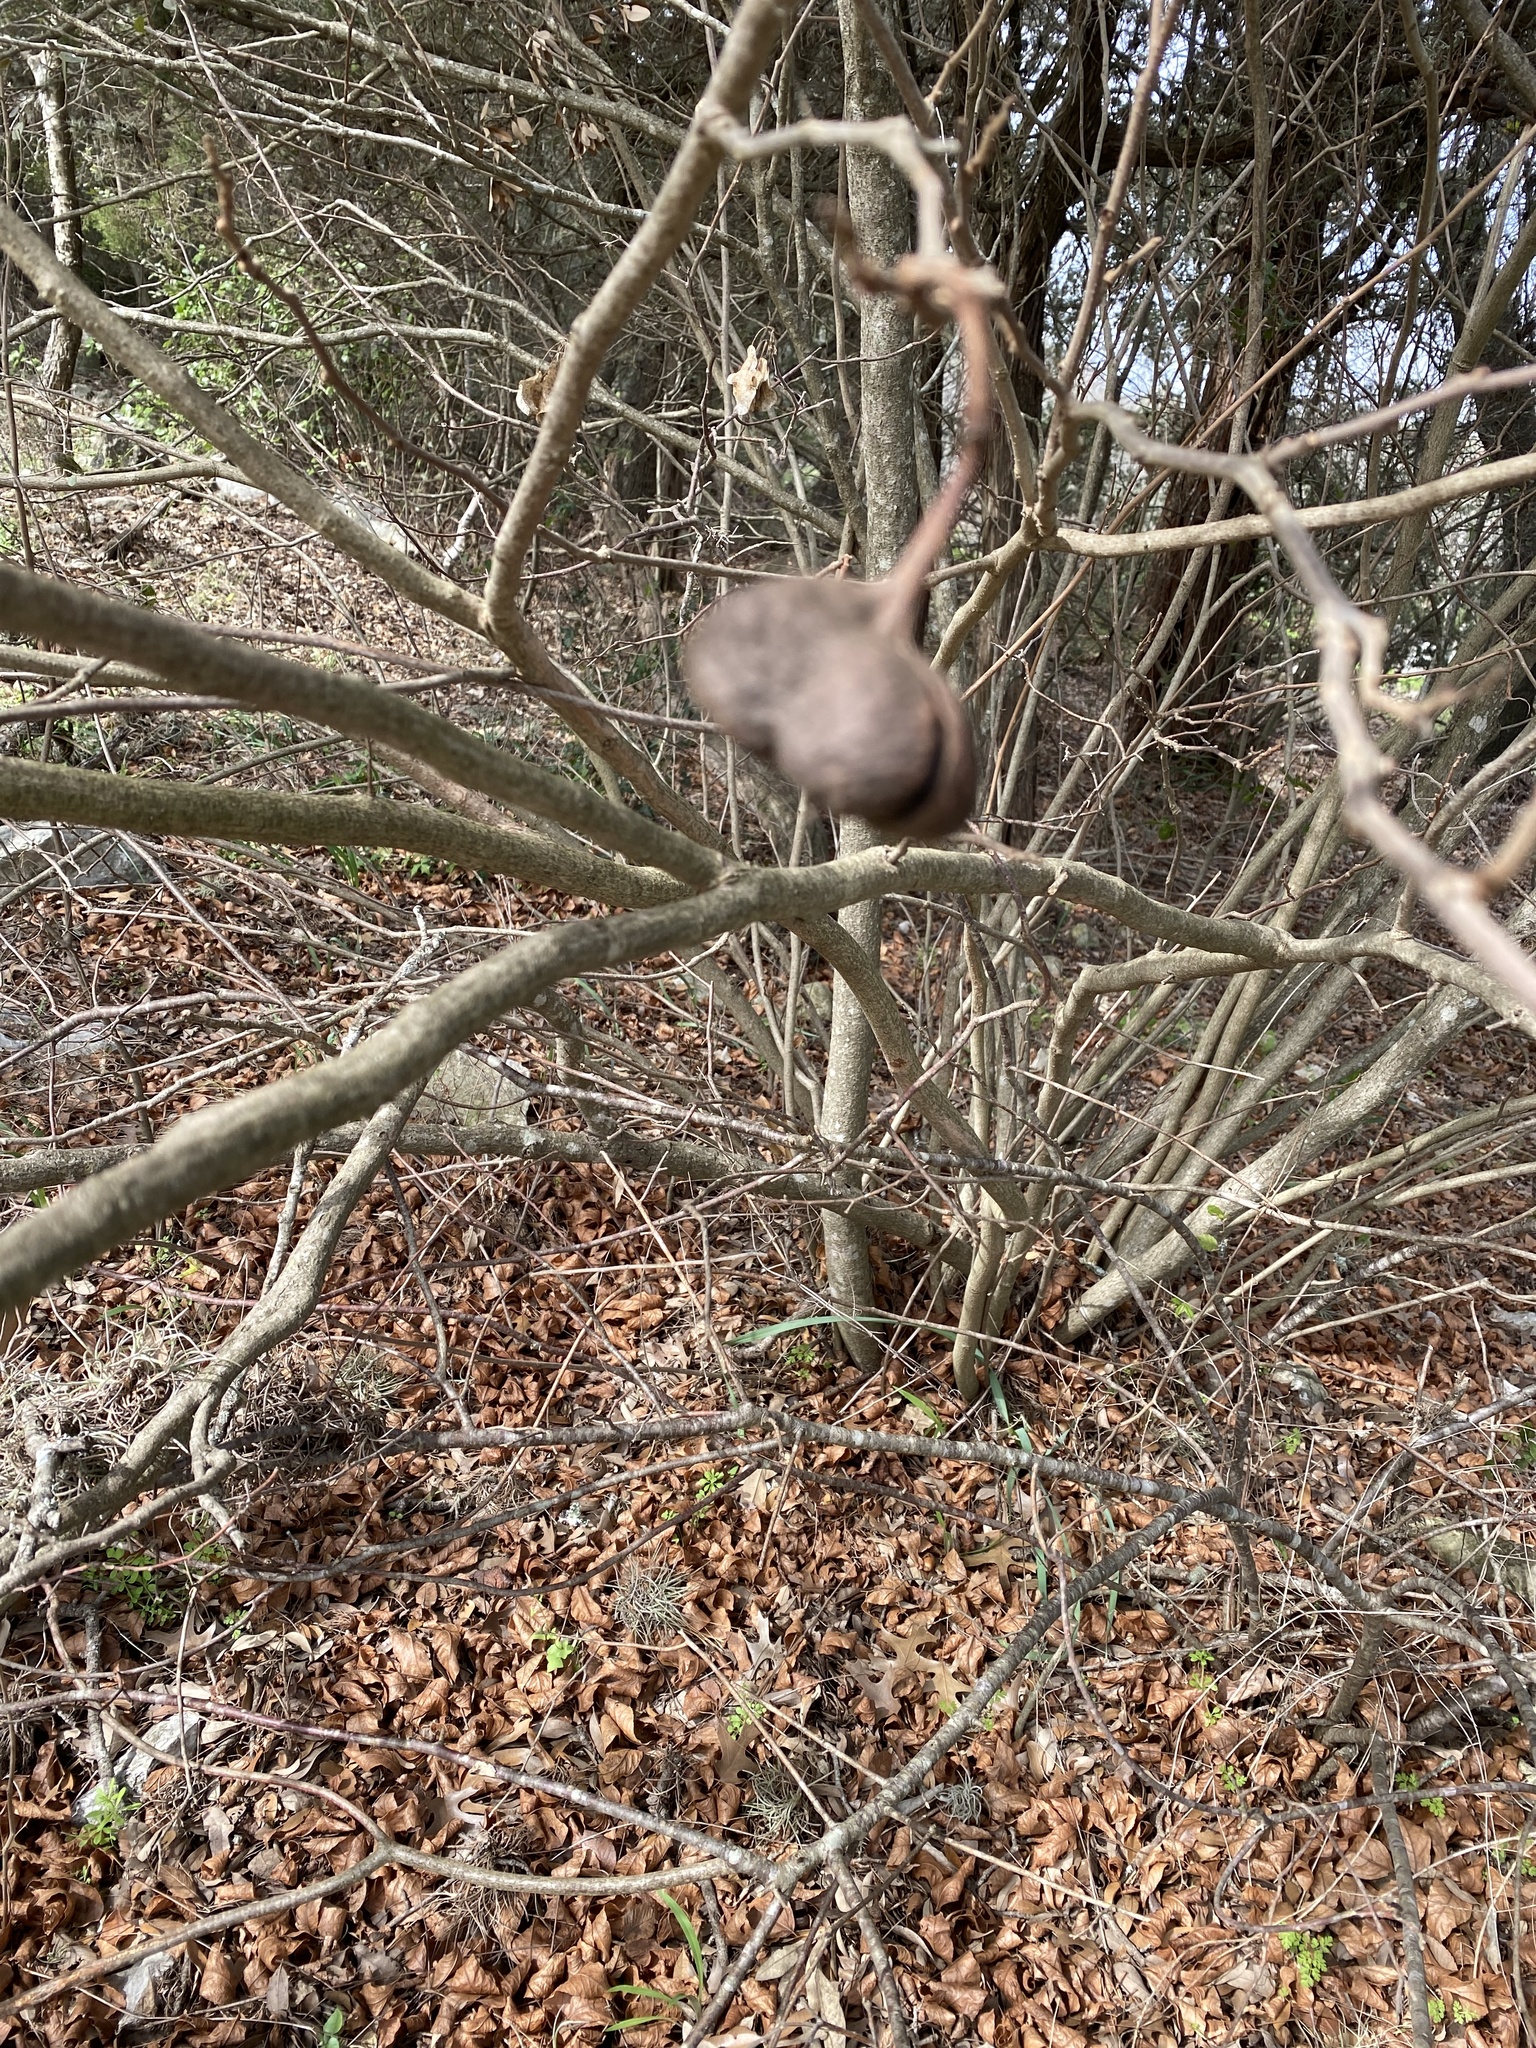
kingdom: Plantae
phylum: Tracheophyta
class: Magnoliopsida
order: Sapindales
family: Sapindaceae
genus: Ungnadia
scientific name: Ungnadia speciosa
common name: Texas-buckeye
